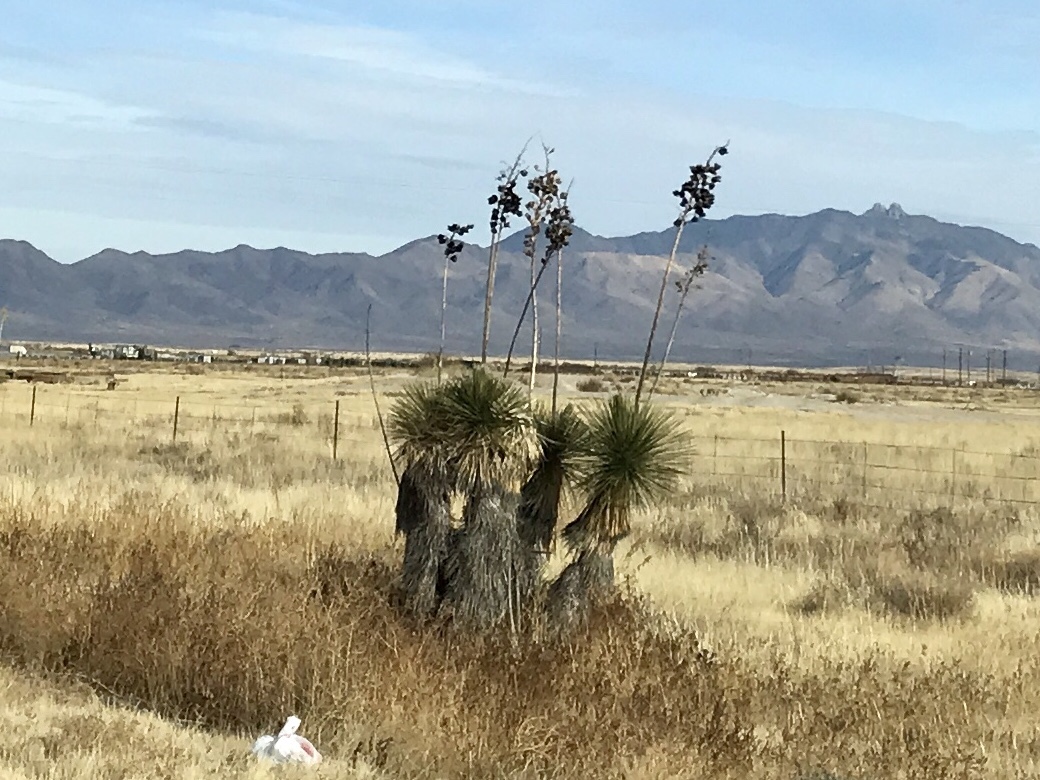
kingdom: Plantae
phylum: Tracheophyta
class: Liliopsida
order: Asparagales
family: Asparagaceae
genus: Yucca
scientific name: Yucca elata
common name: Palmella
